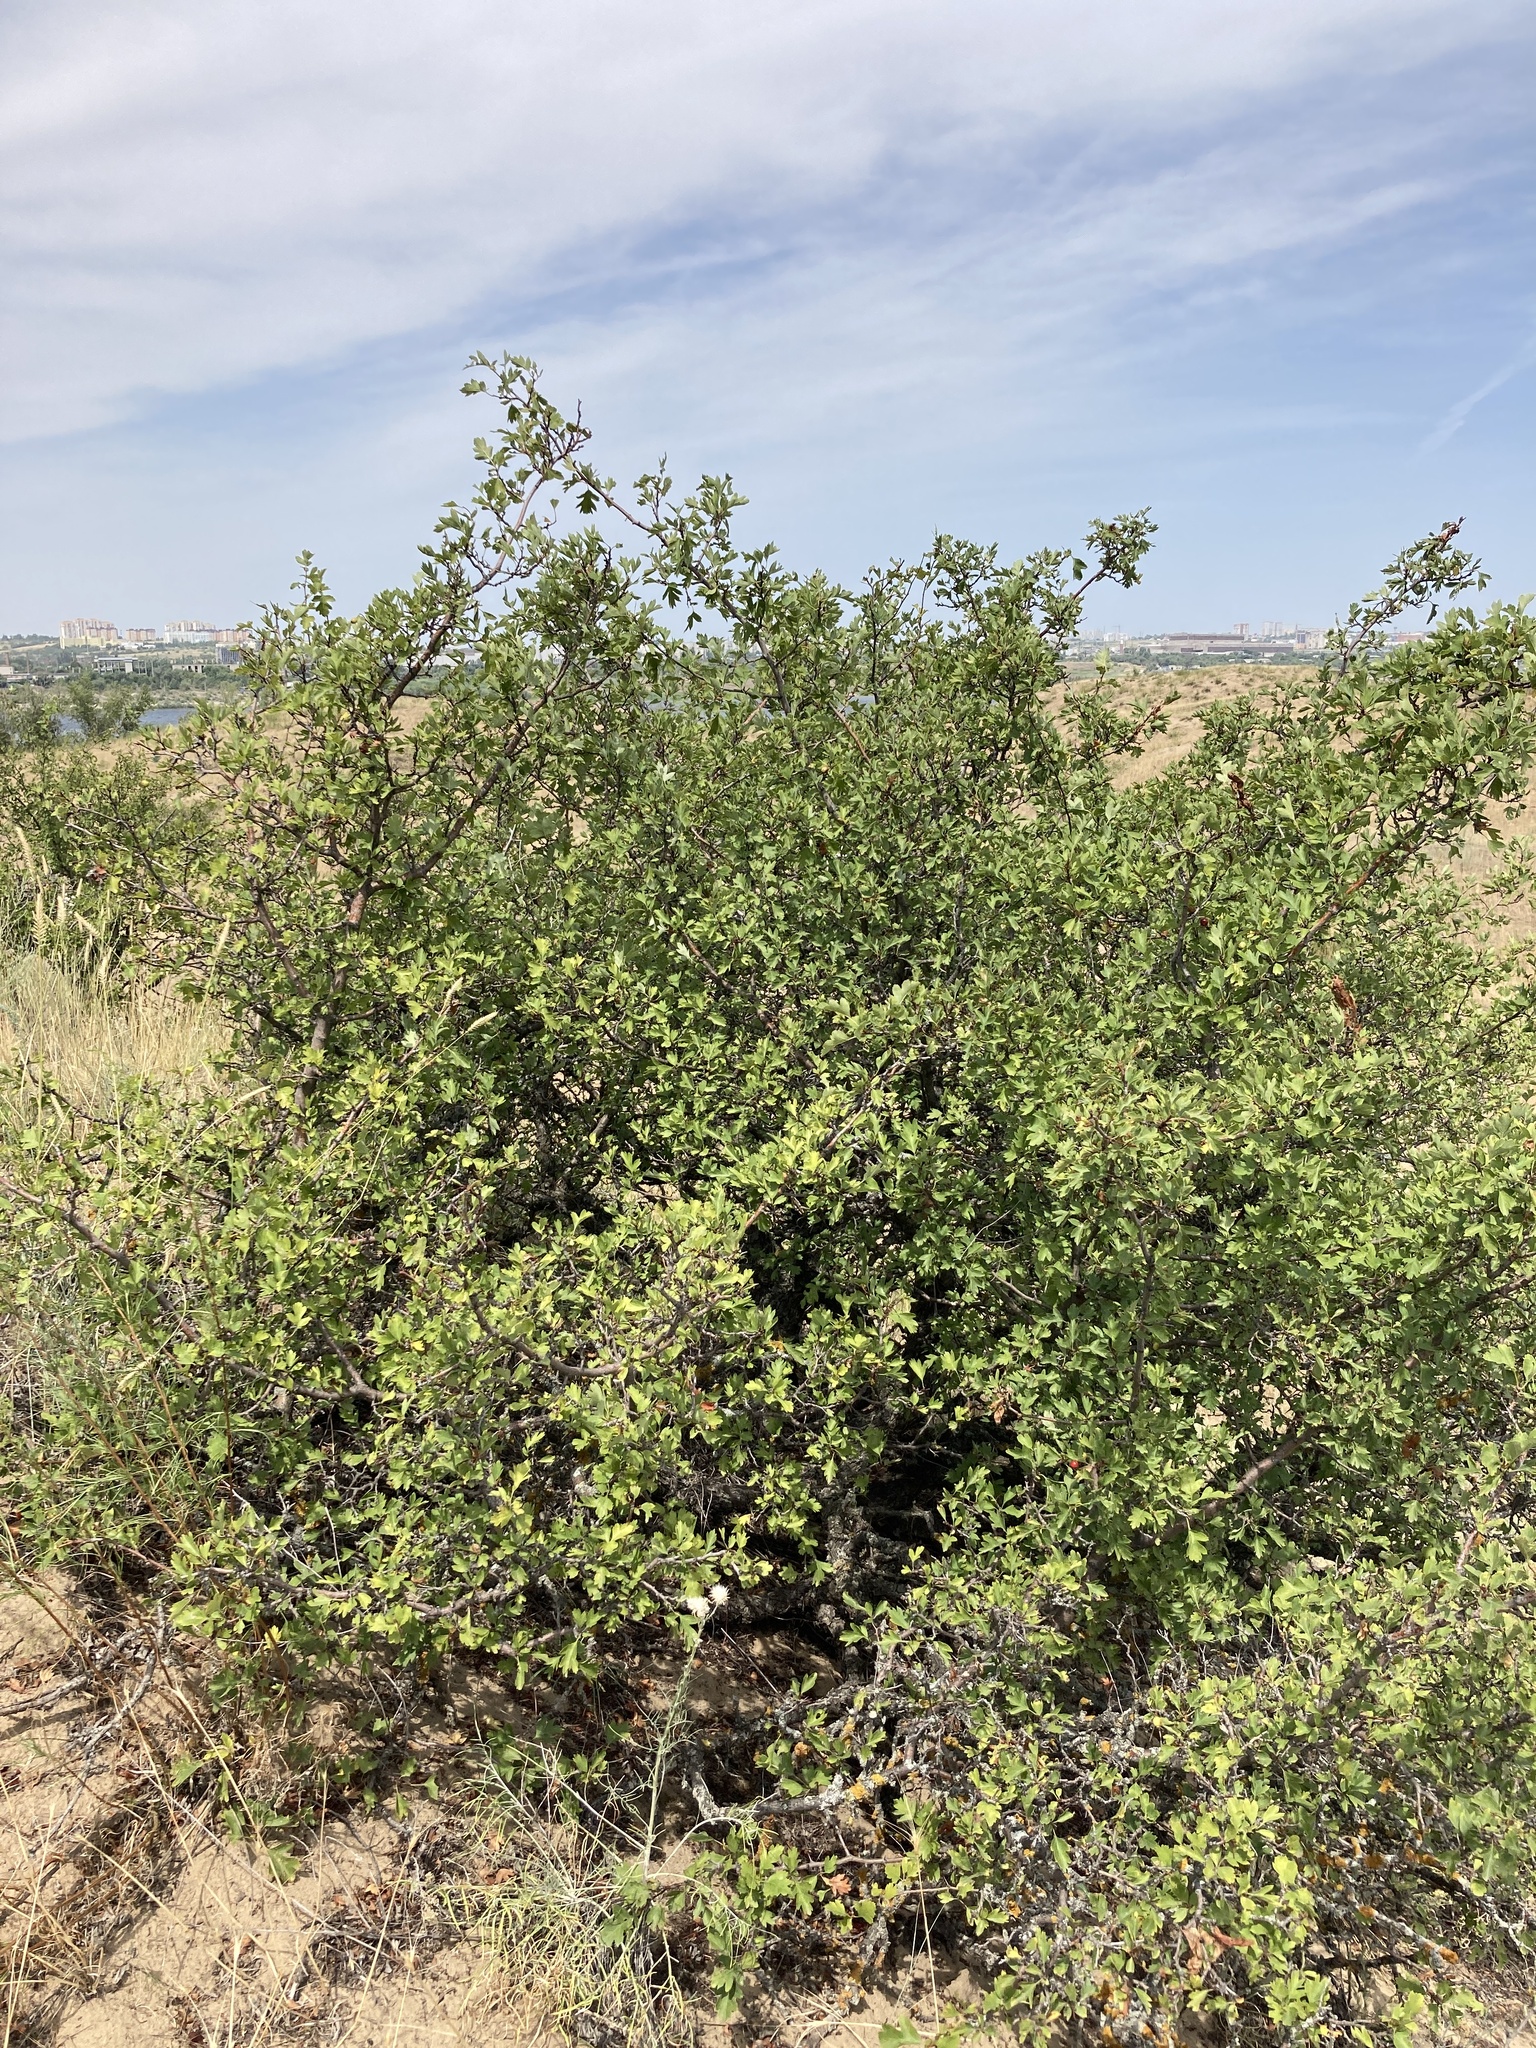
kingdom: Plantae
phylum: Tracheophyta
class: Magnoliopsida
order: Rosales
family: Rosaceae
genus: Crataegus
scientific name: Crataegus monogyna
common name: Hawthorn
